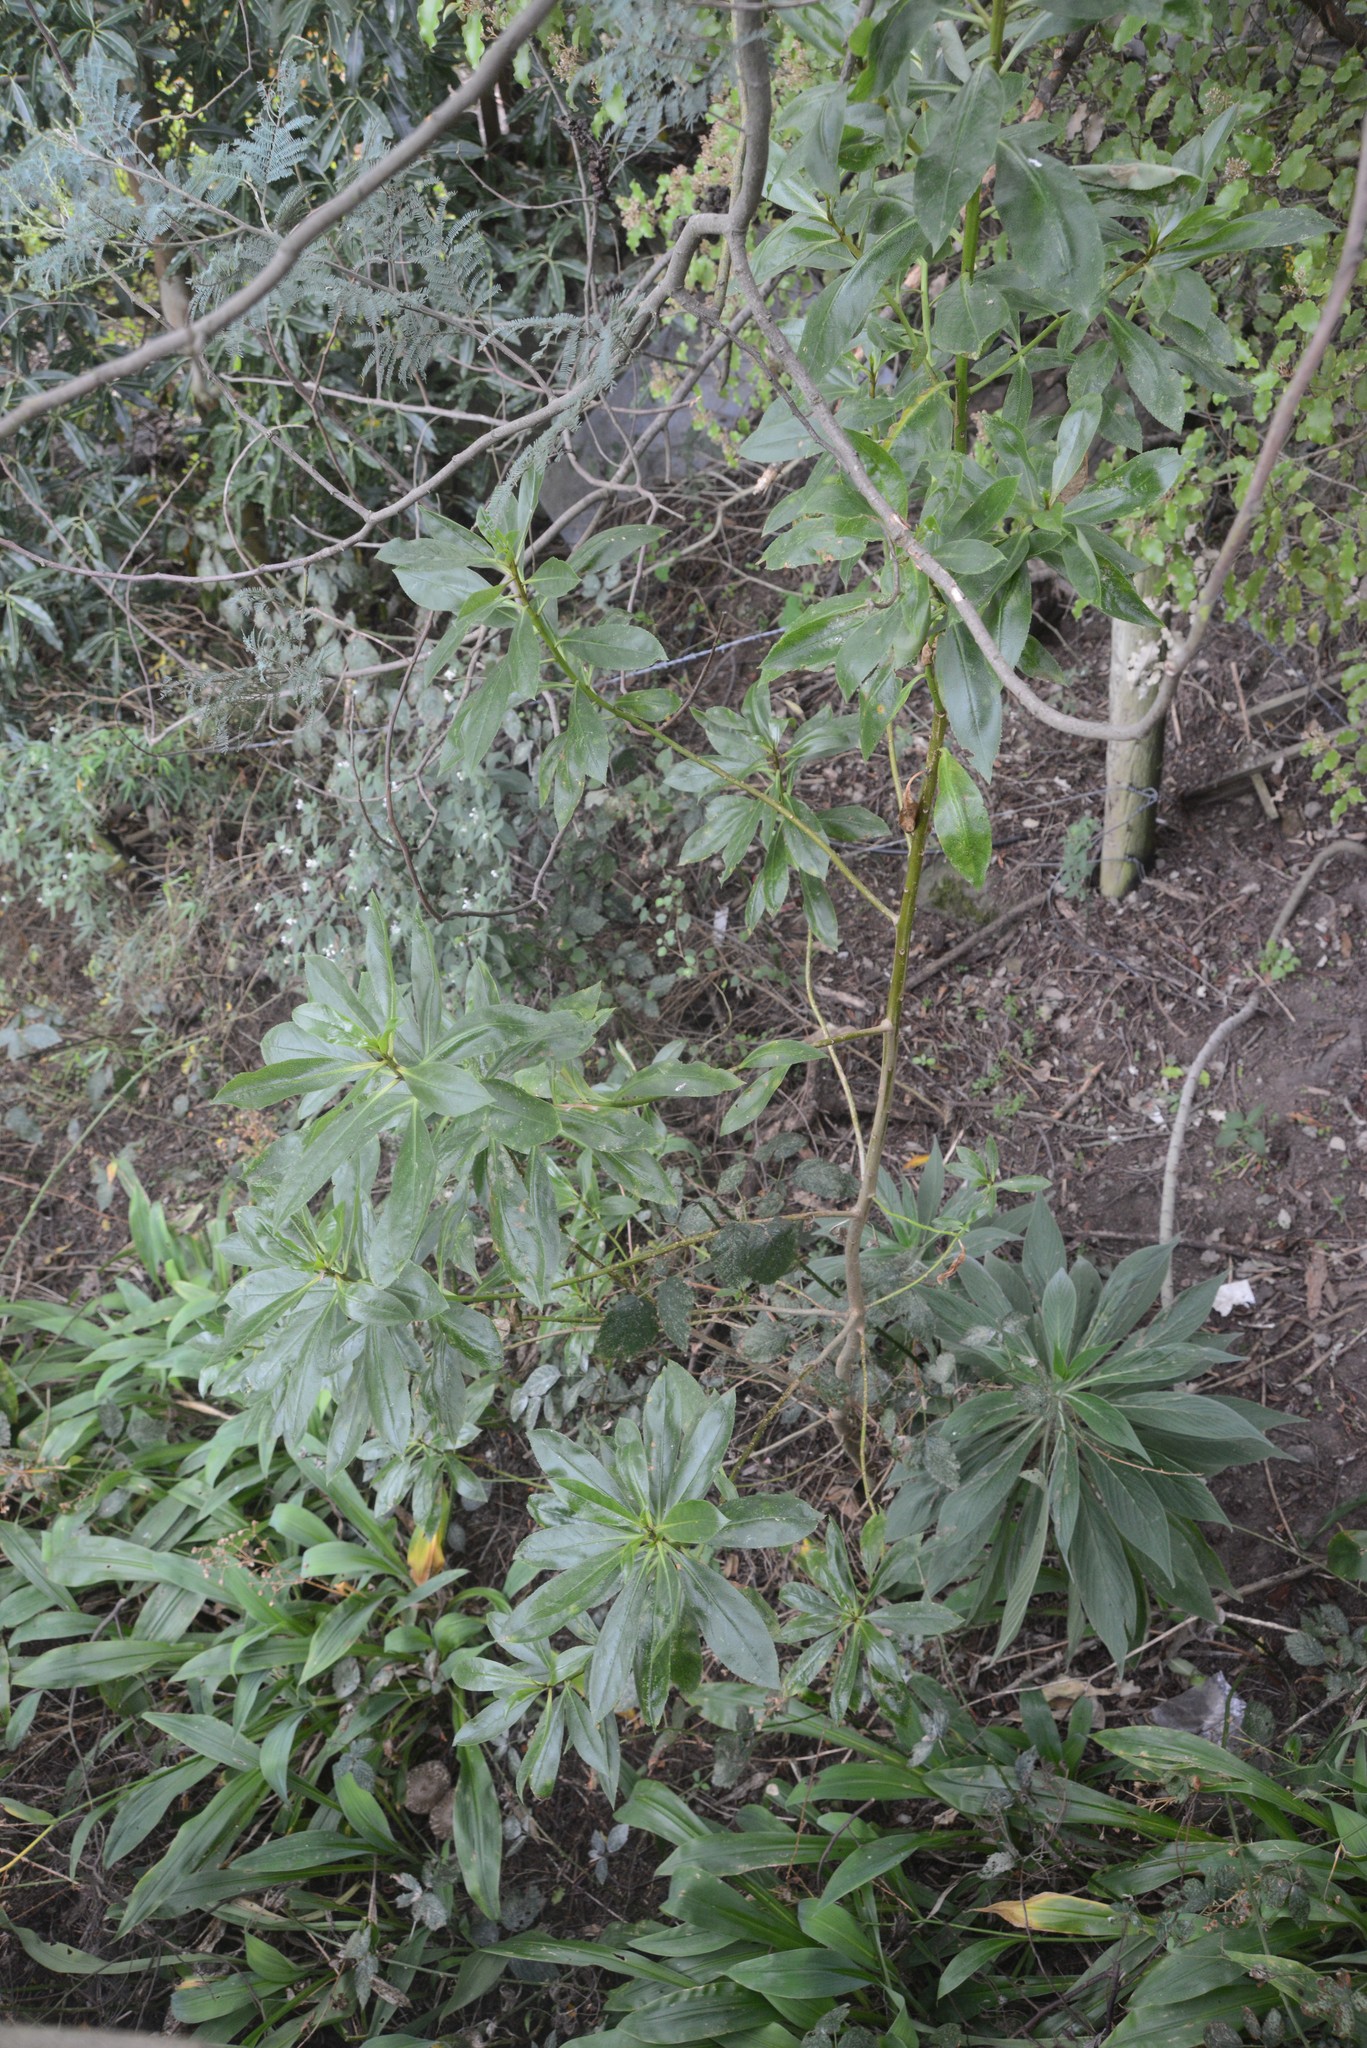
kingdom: Plantae
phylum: Tracheophyta
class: Magnoliopsida
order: Lamiales
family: Scrophulariaceae
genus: Myoporum
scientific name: Myoporum laetum
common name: Ngaio tree
